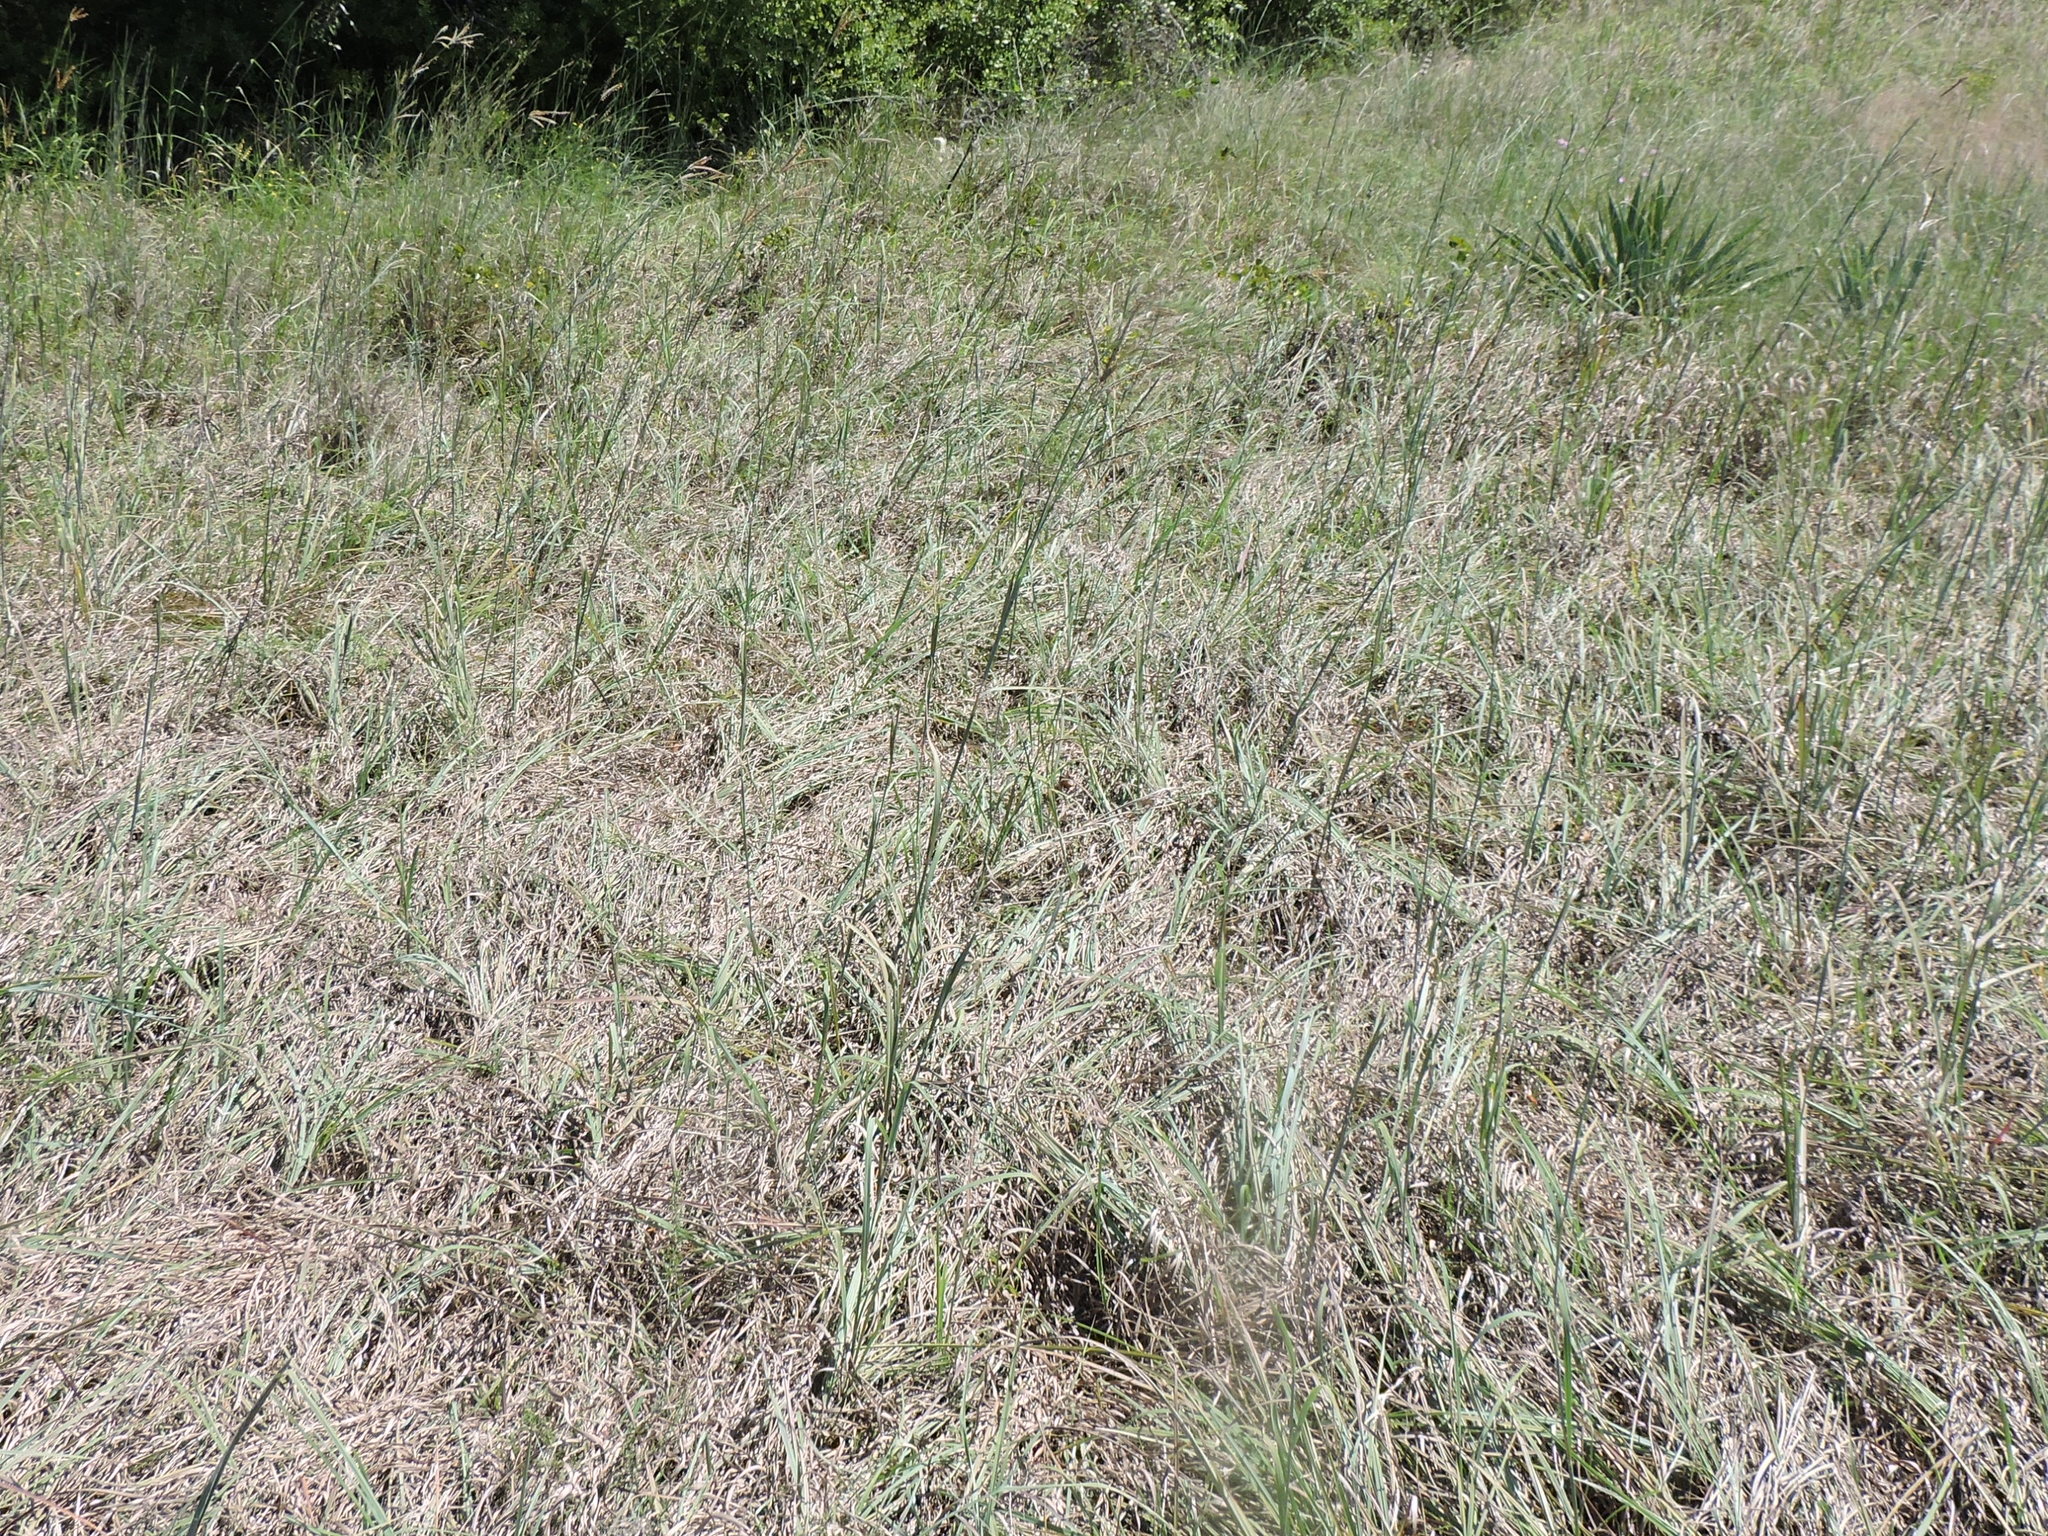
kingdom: Plantae
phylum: Tracheophyta
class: Liliopsida
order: Poales
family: Poaceae
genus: Andropogon
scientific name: Andropogon gerardi
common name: Big bluestem
